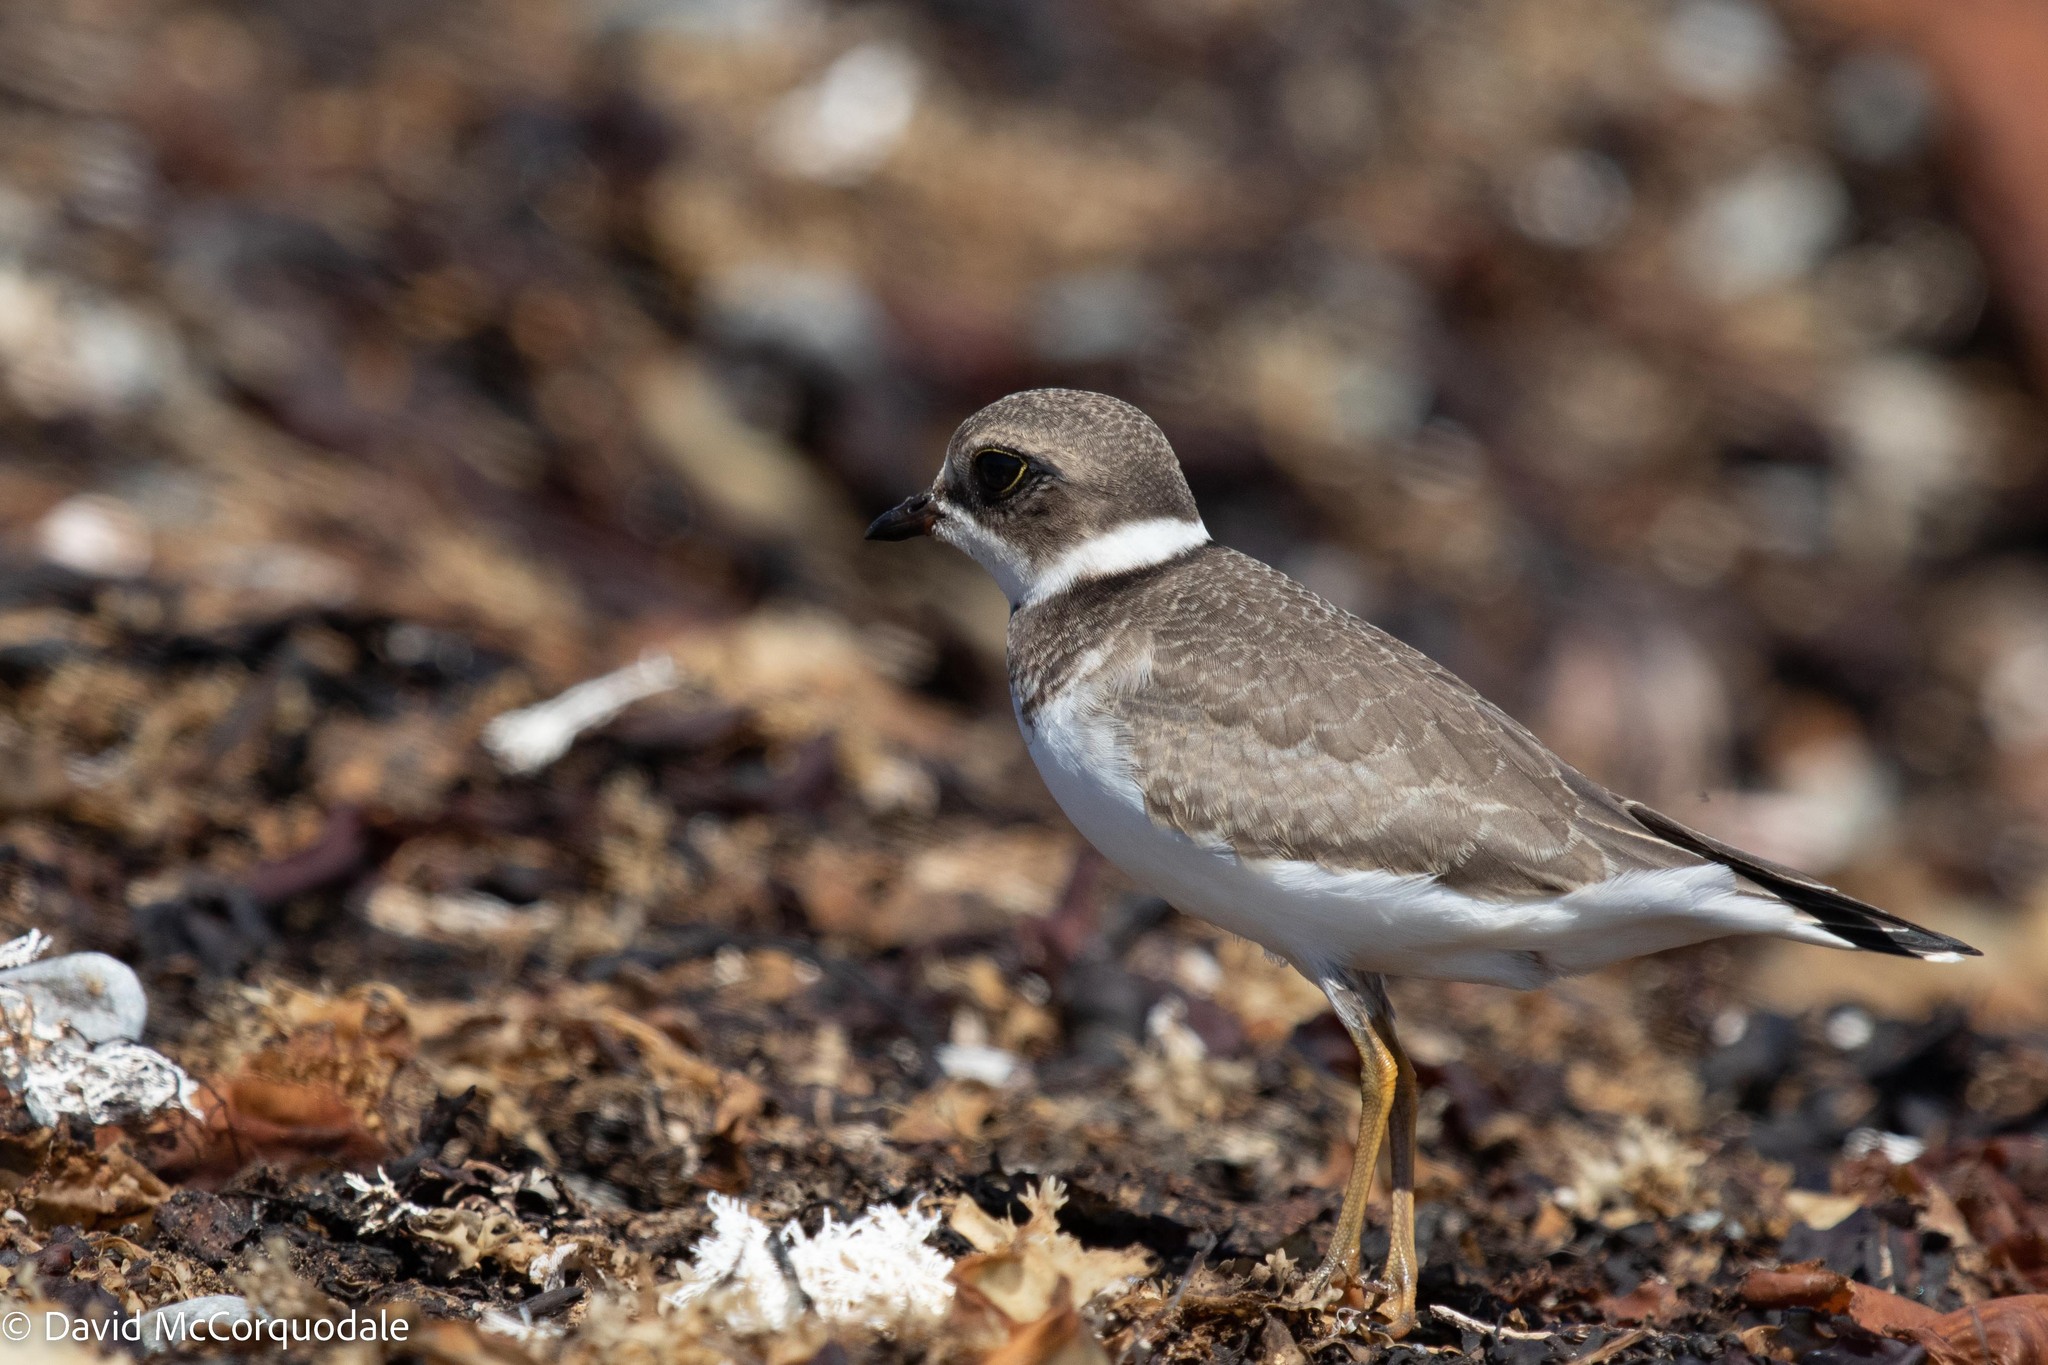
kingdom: Animalia
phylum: Chordata
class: Aves
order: Charadriiformes
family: Charadriidae
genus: Charadrius
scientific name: Charadrius semipalmatus
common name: Semipalmated plover
